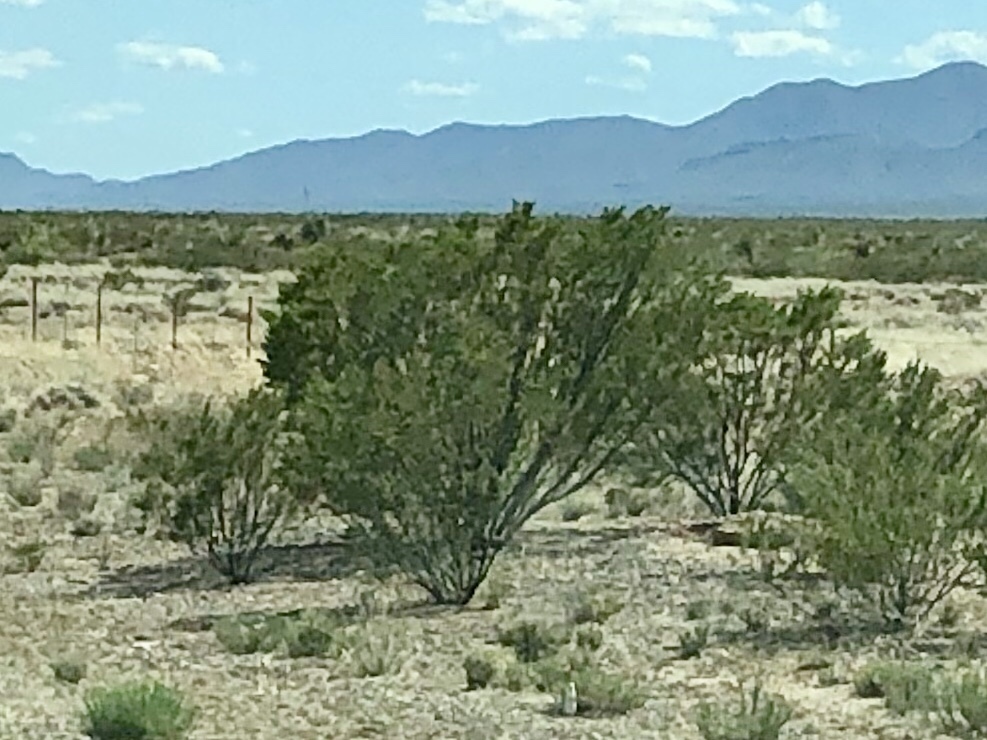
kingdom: Plantae
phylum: Tracheophyta
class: Magnoliopsida
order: Zygophyllales
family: Zygophyllaceae
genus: Larrea
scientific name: Larrea tridentata
